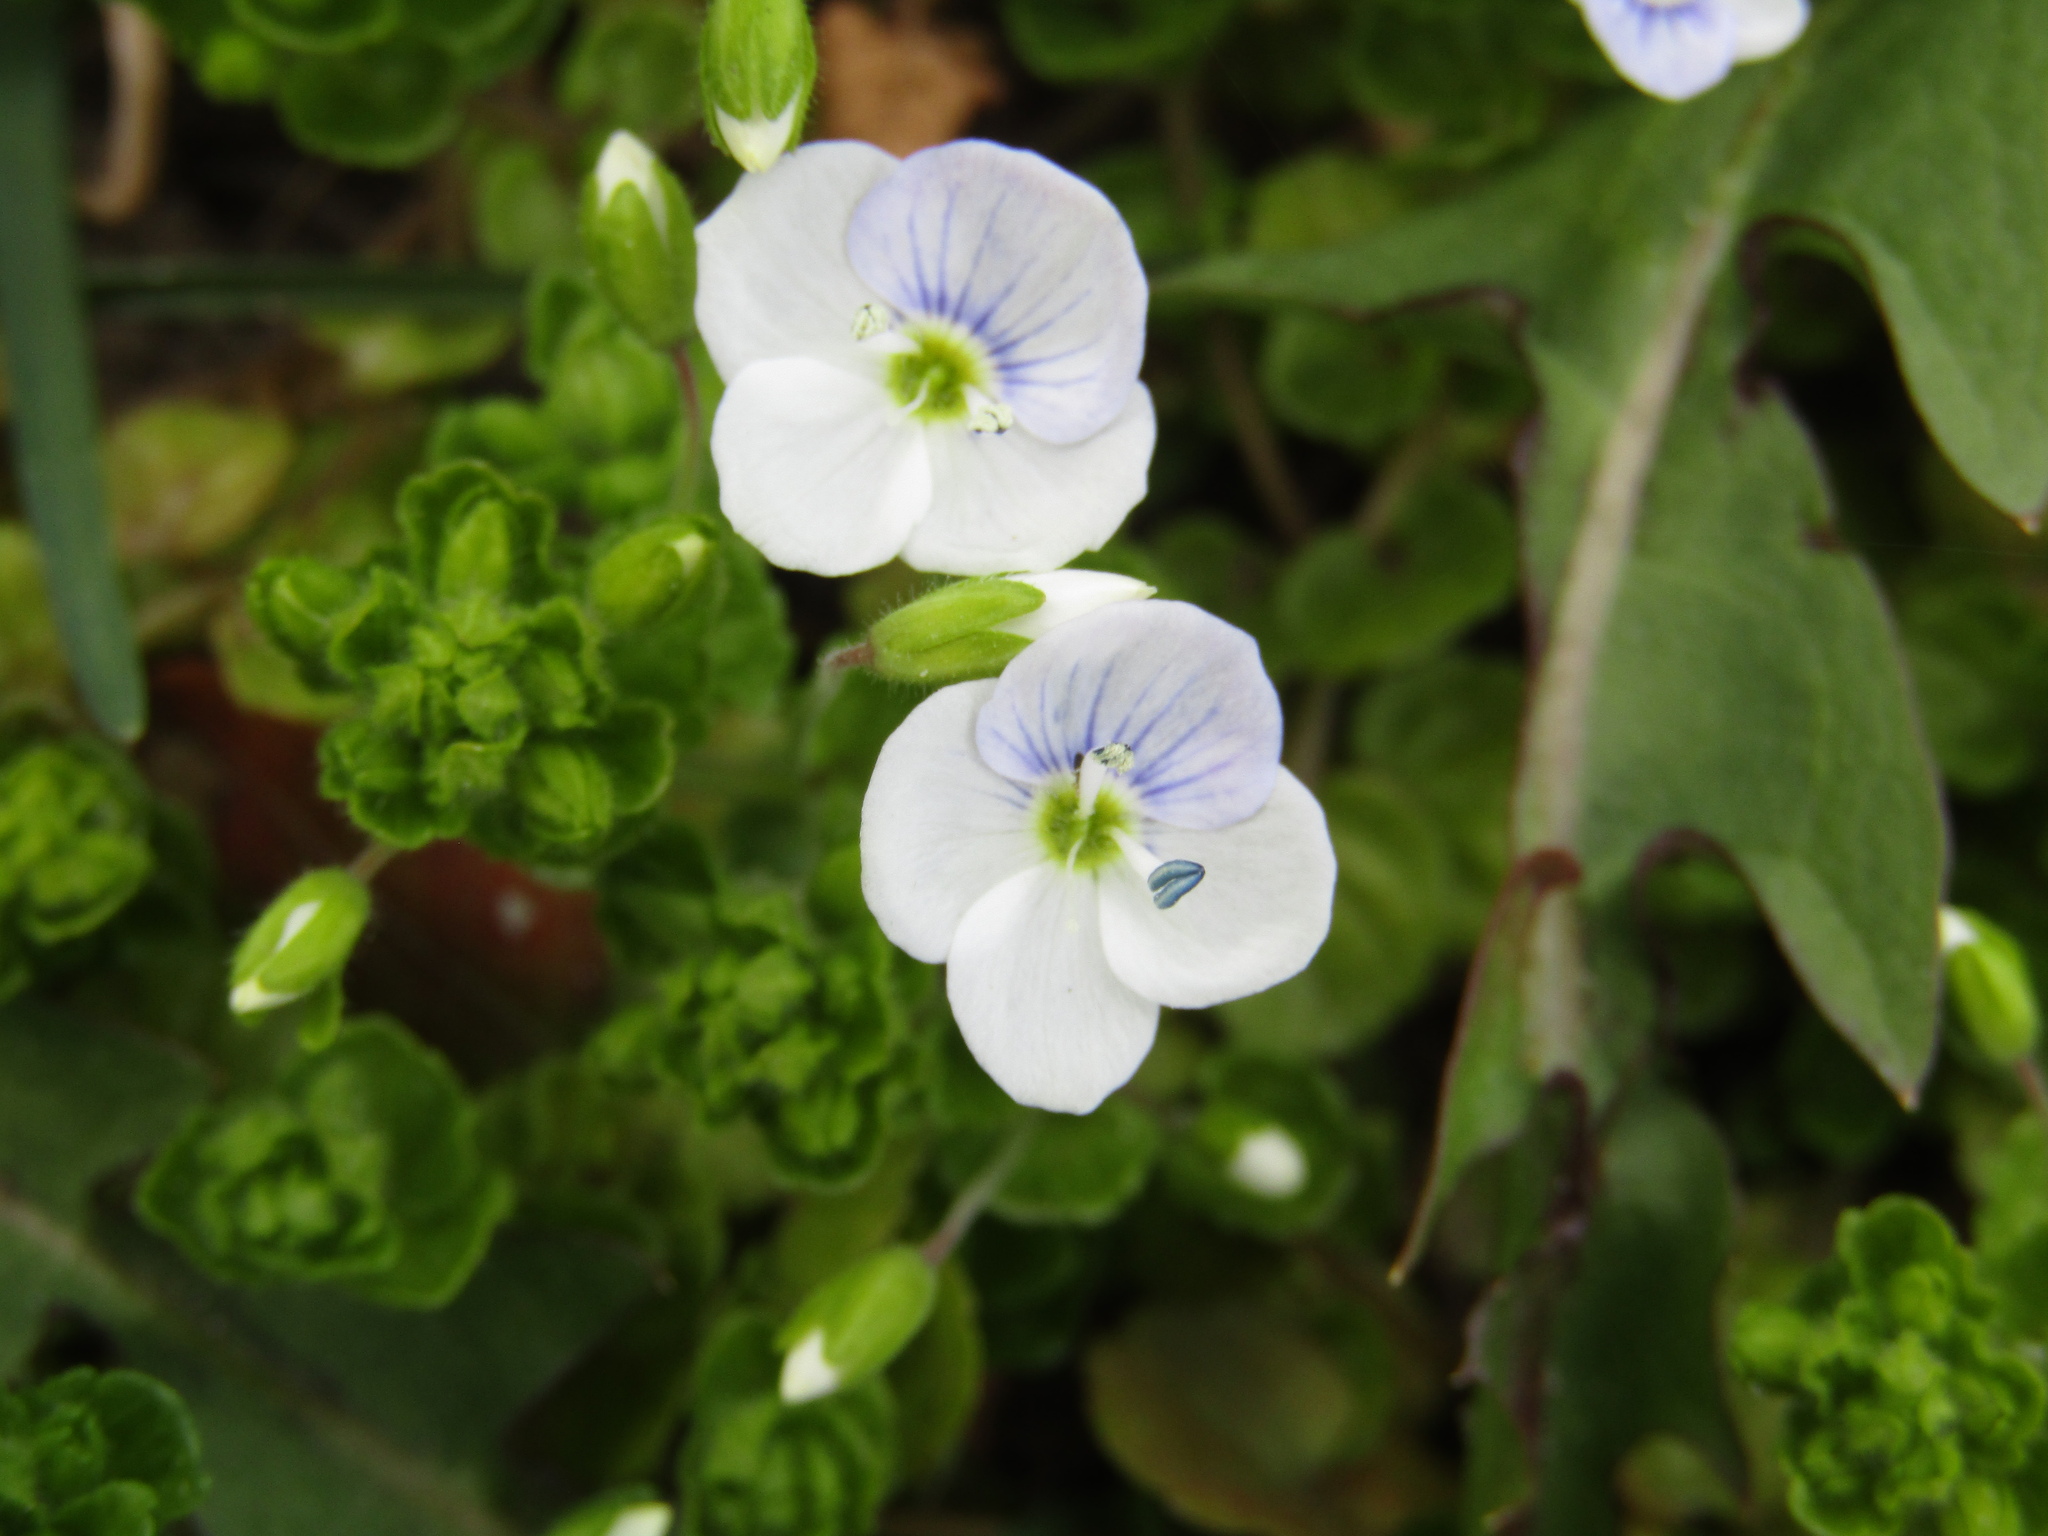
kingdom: Plantae
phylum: Tracheophyta
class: Magnoliopsida
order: Lamiales
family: Plantaginaceae
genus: Veronica
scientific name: Veronica filiformis
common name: Slender speedwell
